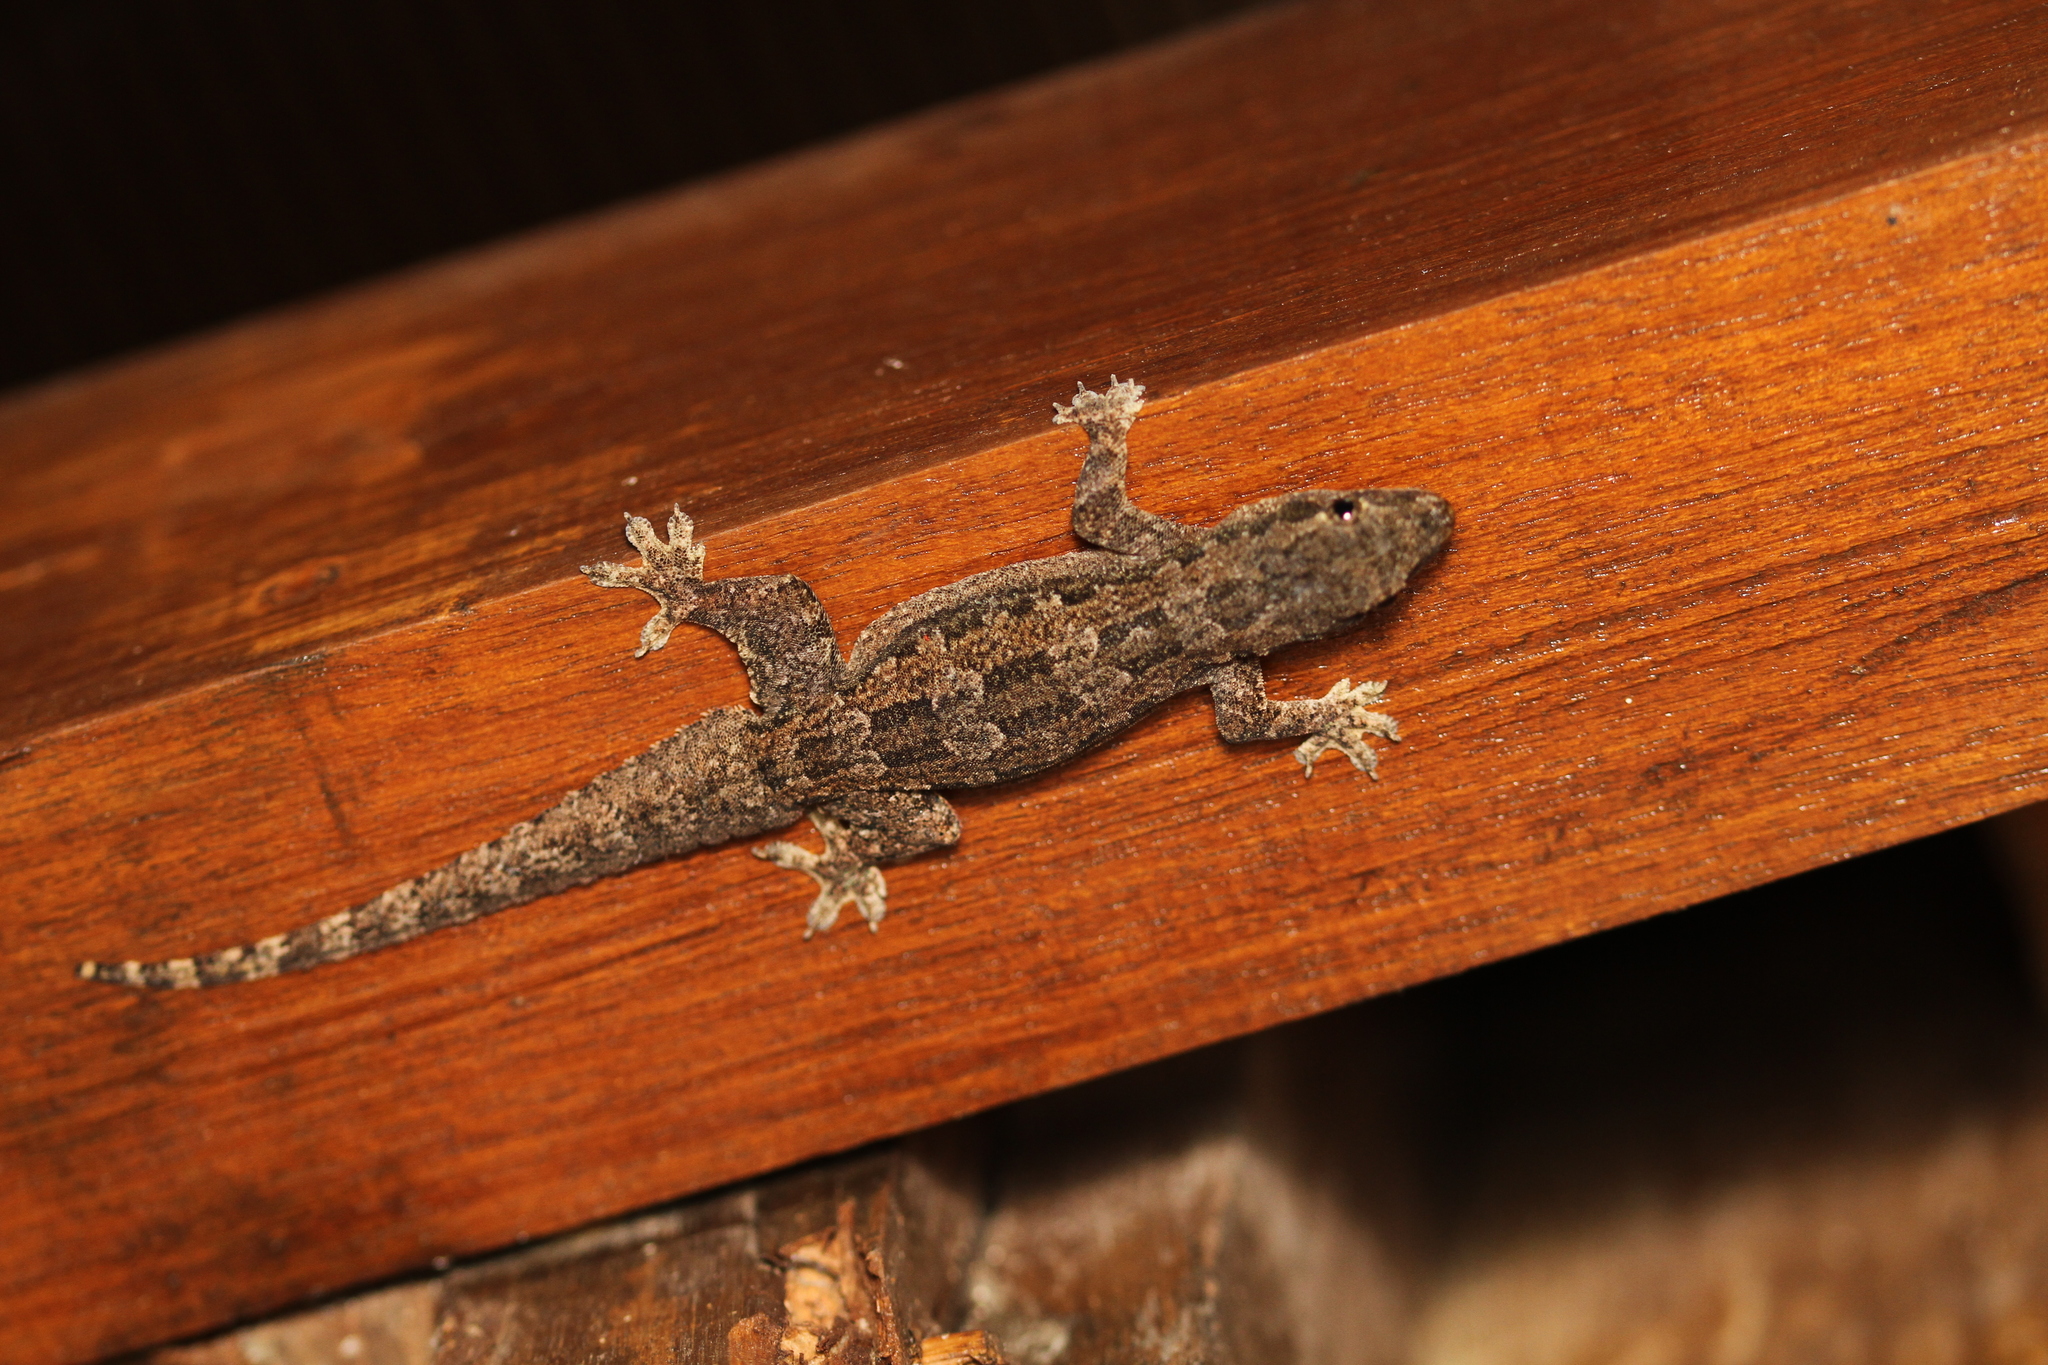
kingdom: Animalia
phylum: Chordata
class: Squamata
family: Gekkonidae
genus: Hemidactylus
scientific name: Hemidactylus platyurus
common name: Flat-tailed house gecko
